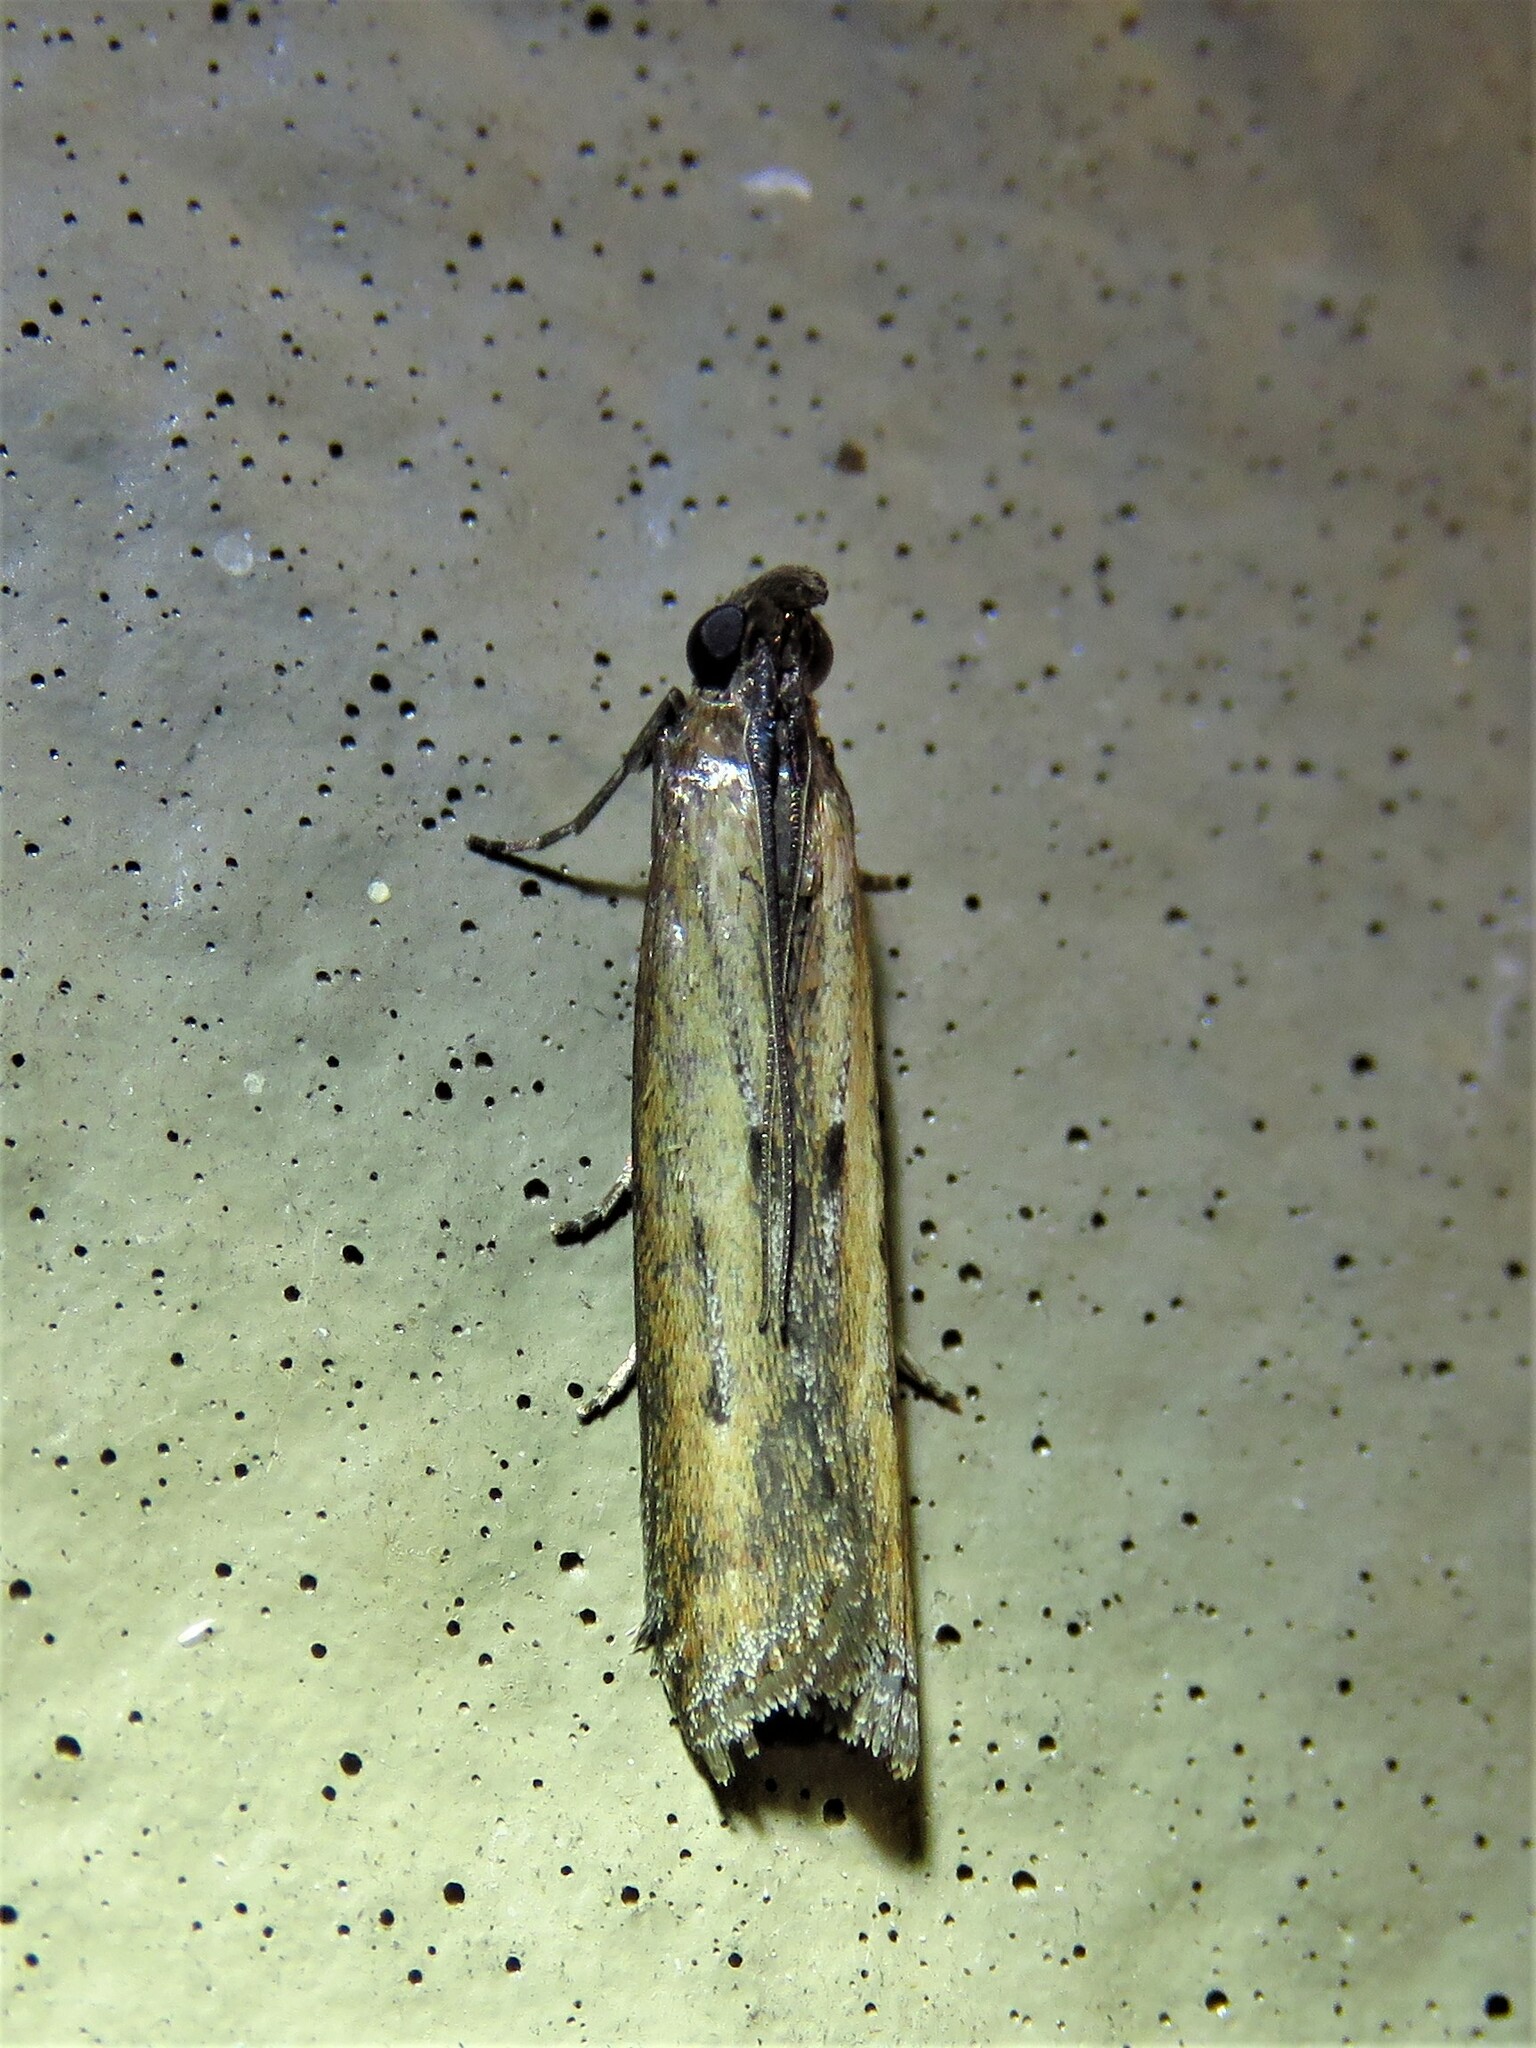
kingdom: Animalia
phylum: Arthropoda
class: Insecta
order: Lepidoptera
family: Pyralidae
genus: Elasmopalpus
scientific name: Elasmopalpus lignosella
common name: Lesser cornstalk borer
